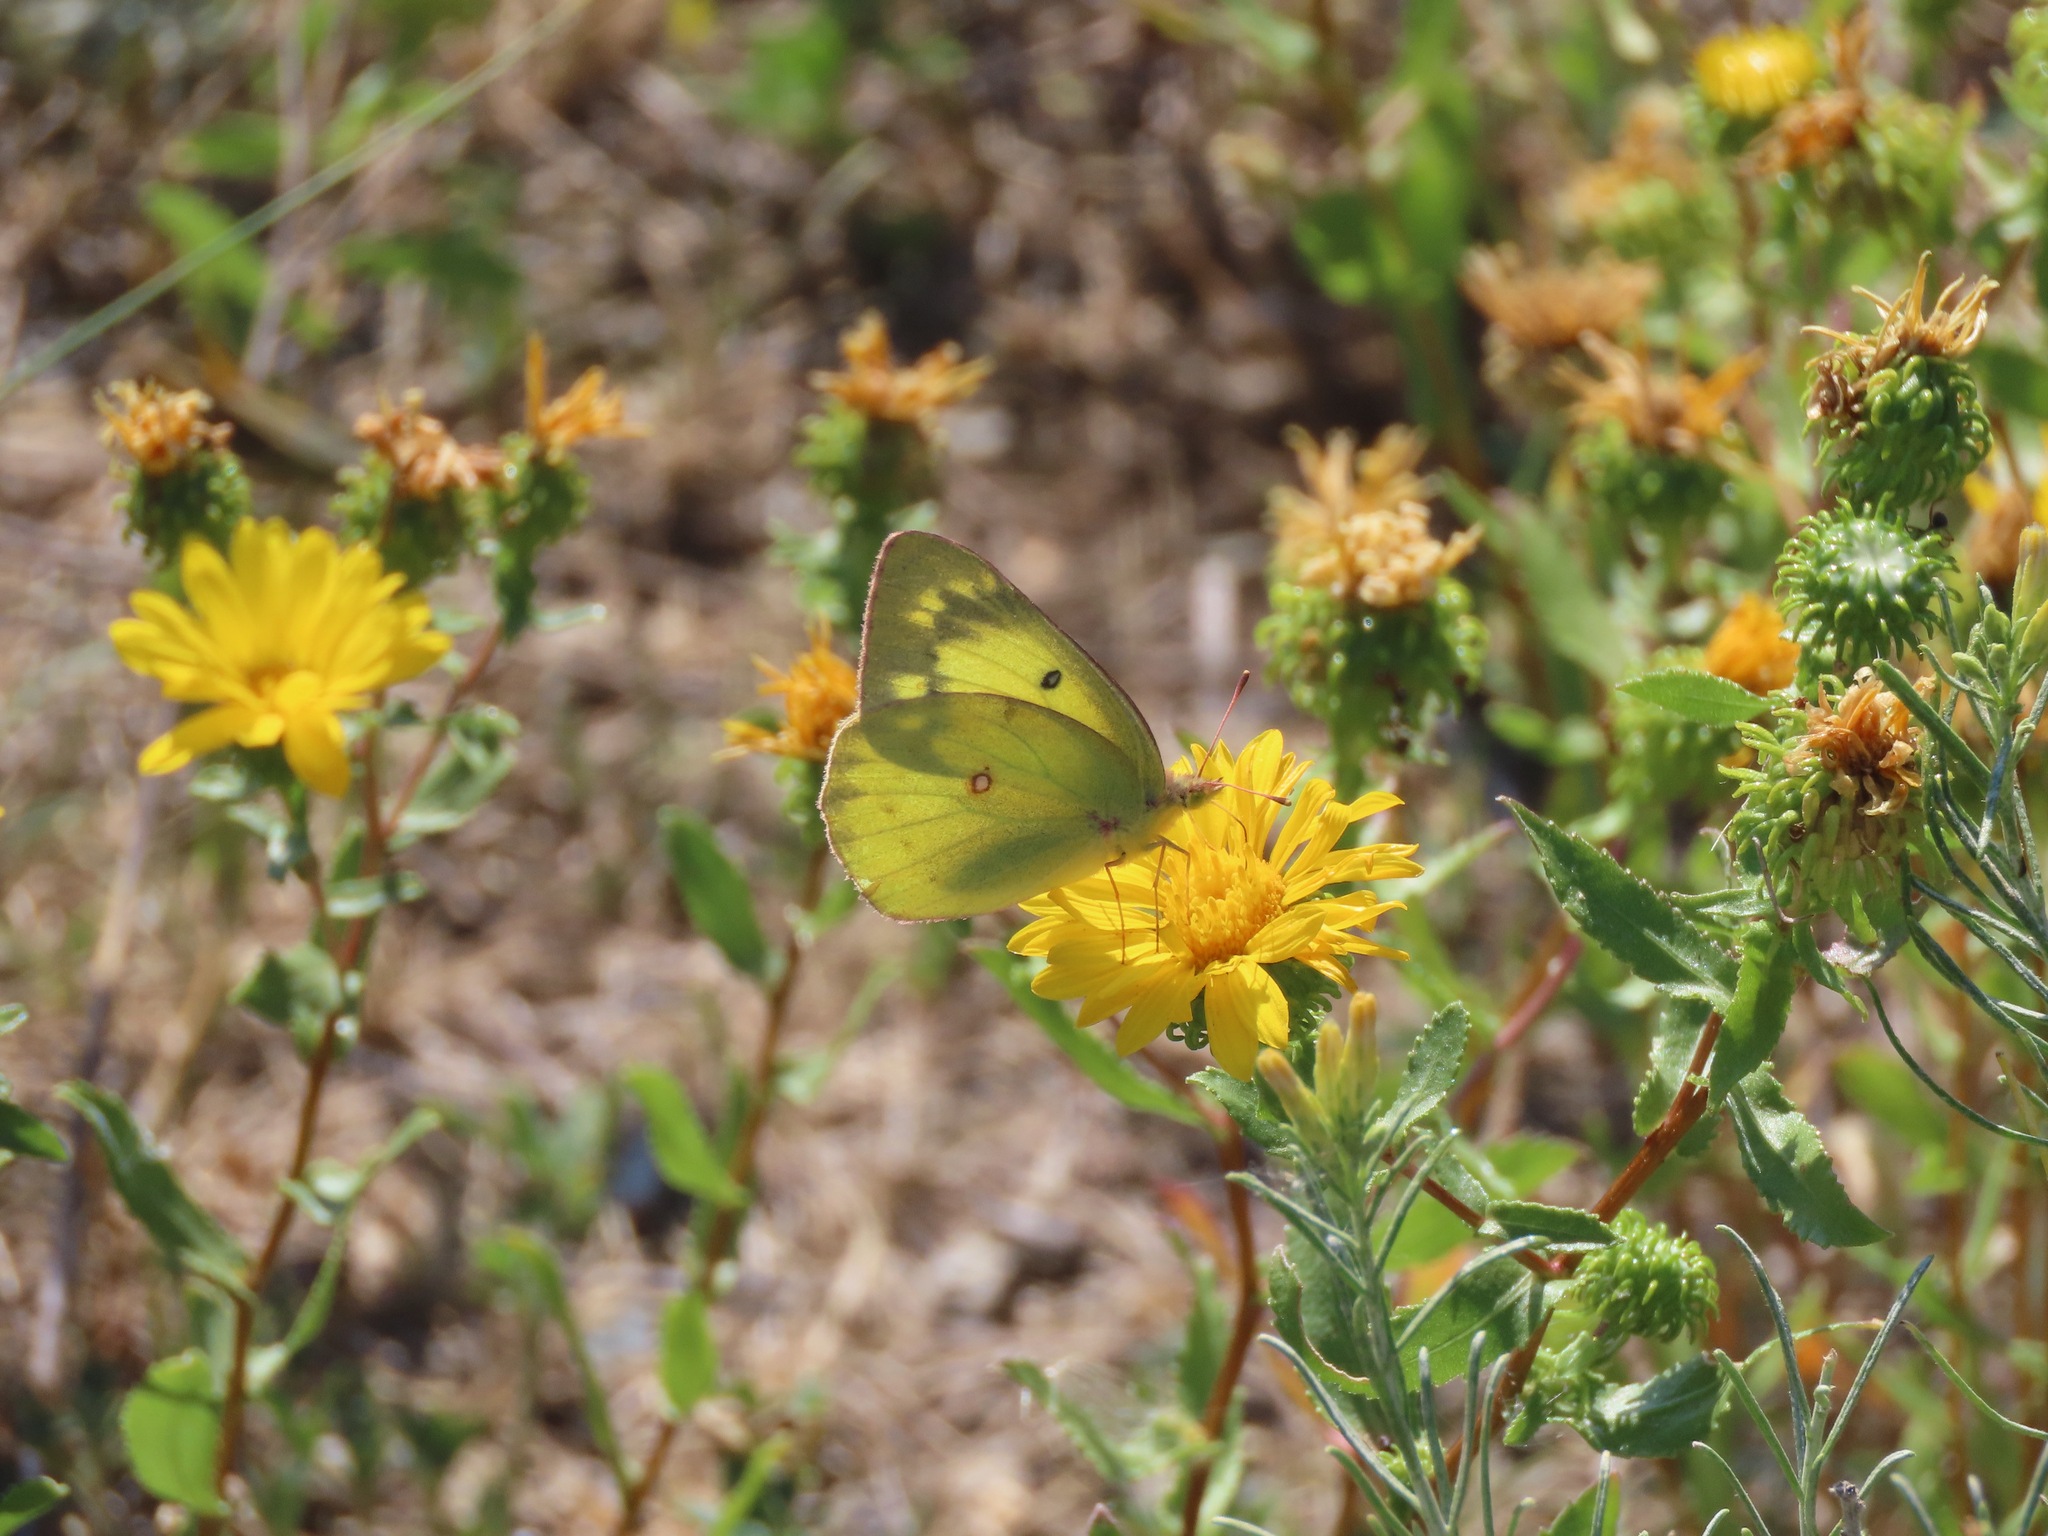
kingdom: Animalia
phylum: Arthropoda
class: Insecta
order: Lepidoptera
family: Pieridae
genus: Colias
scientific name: Colias philodice
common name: Clouded sulphur
